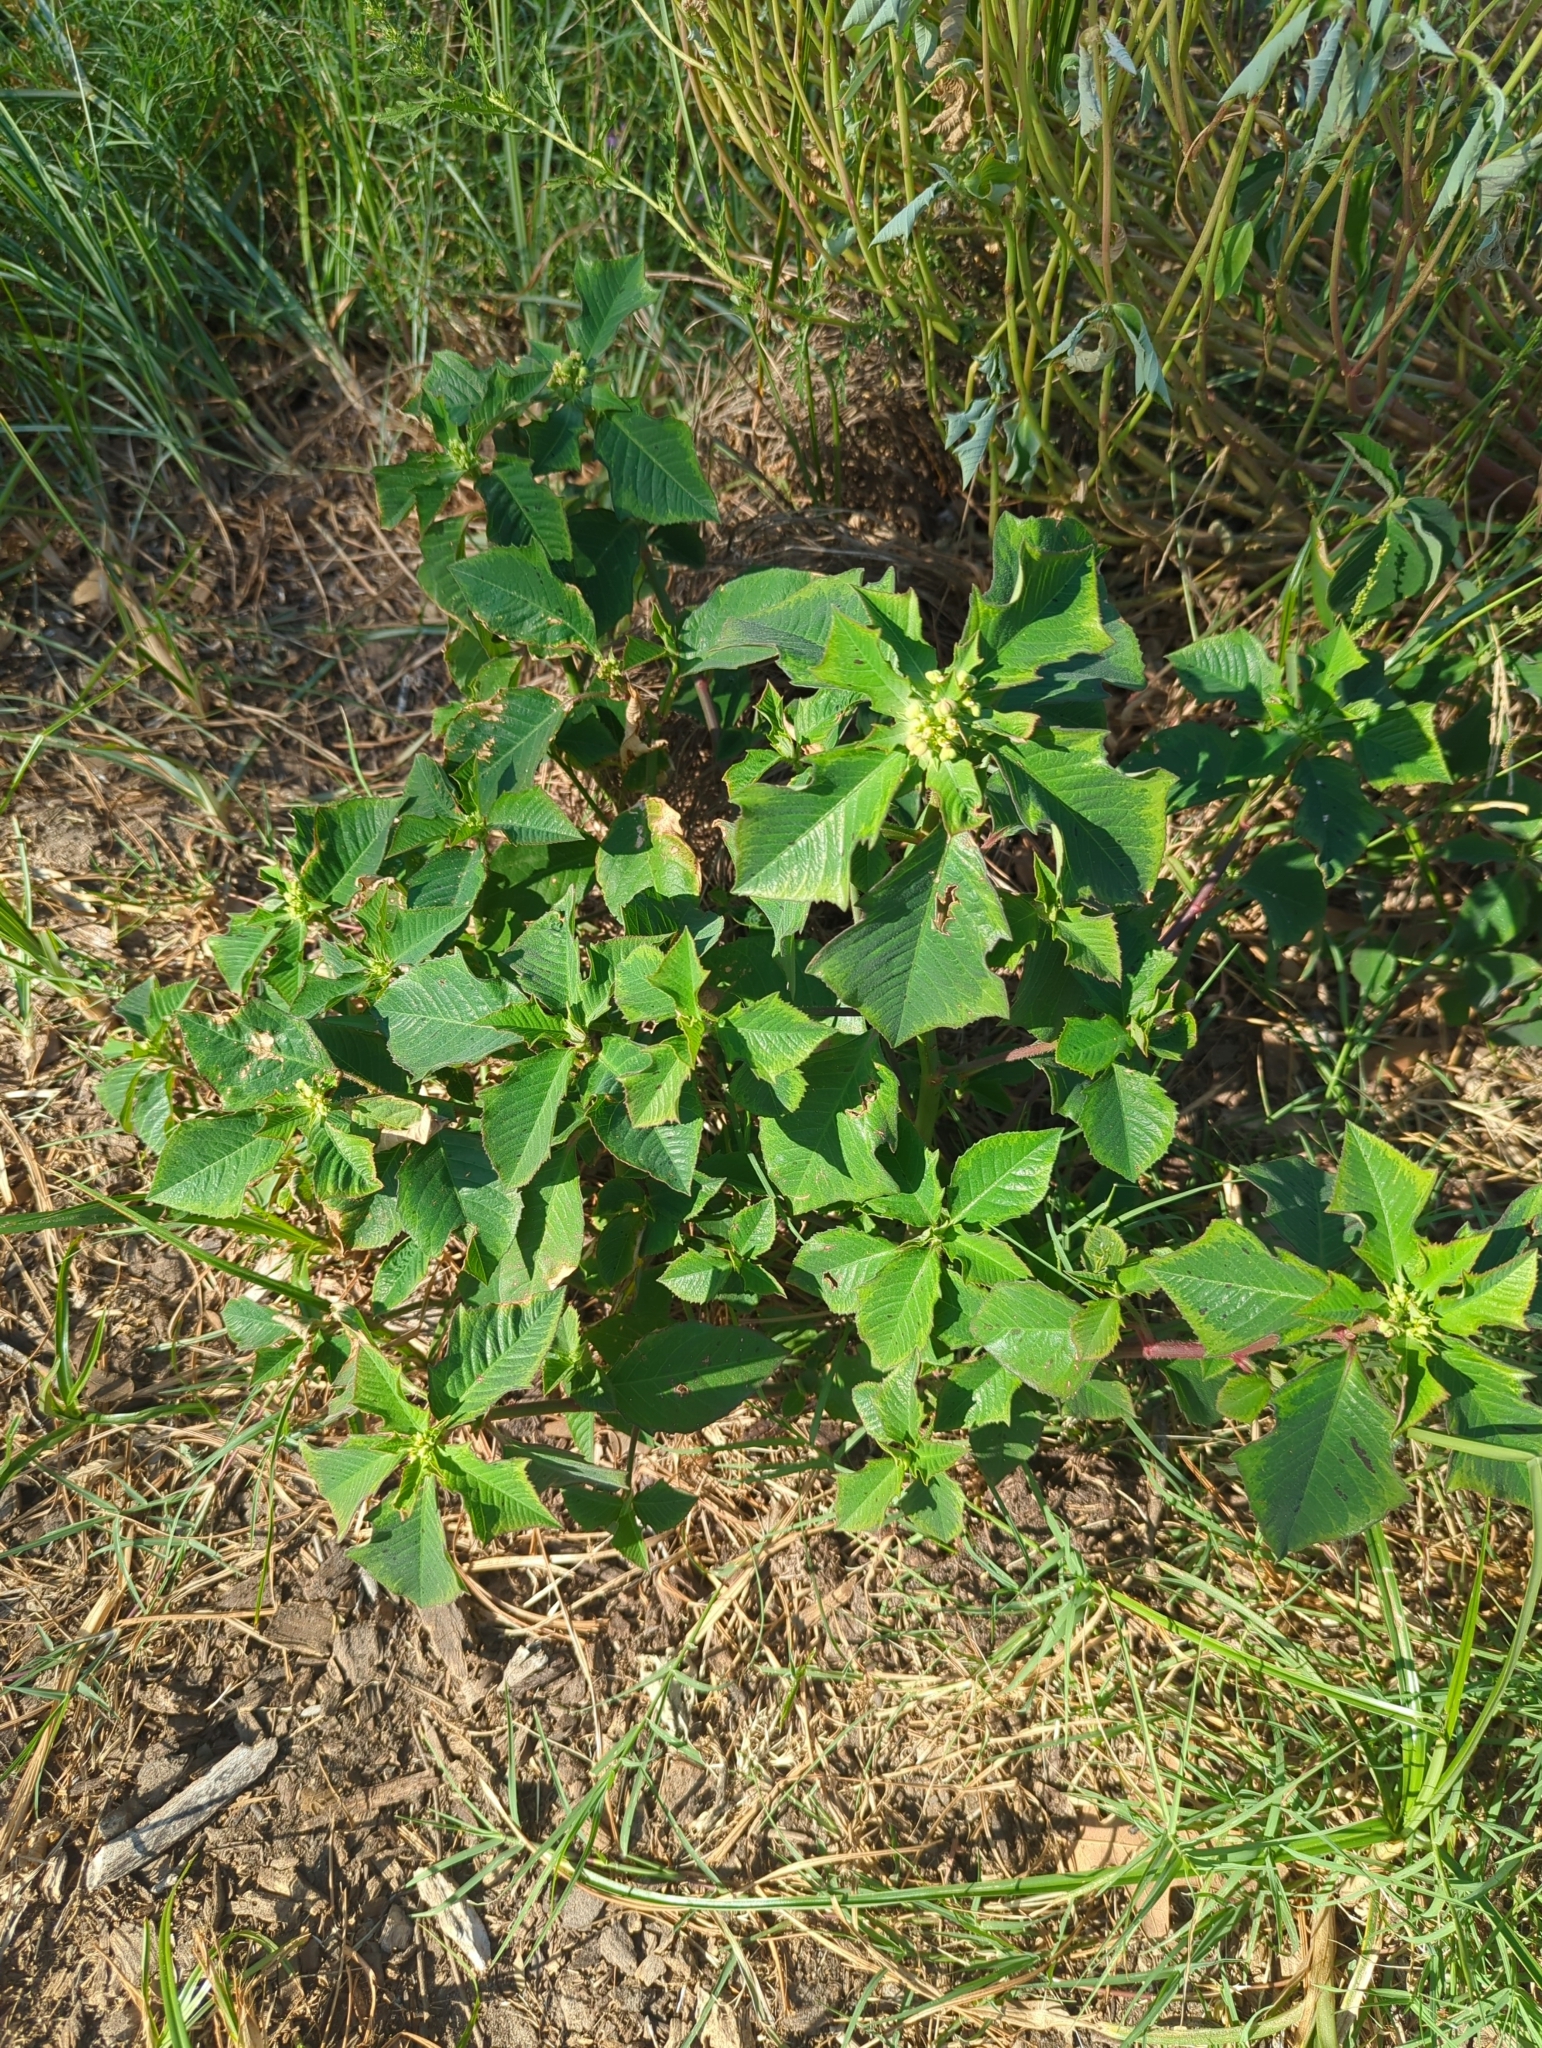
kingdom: Plantae
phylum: Tracheophyta
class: Magnoliopsida
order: Malpighiales
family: Euphorbiaceae
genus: Euphorbia
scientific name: Euphorbia heterophylla
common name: Mexican fireplant
